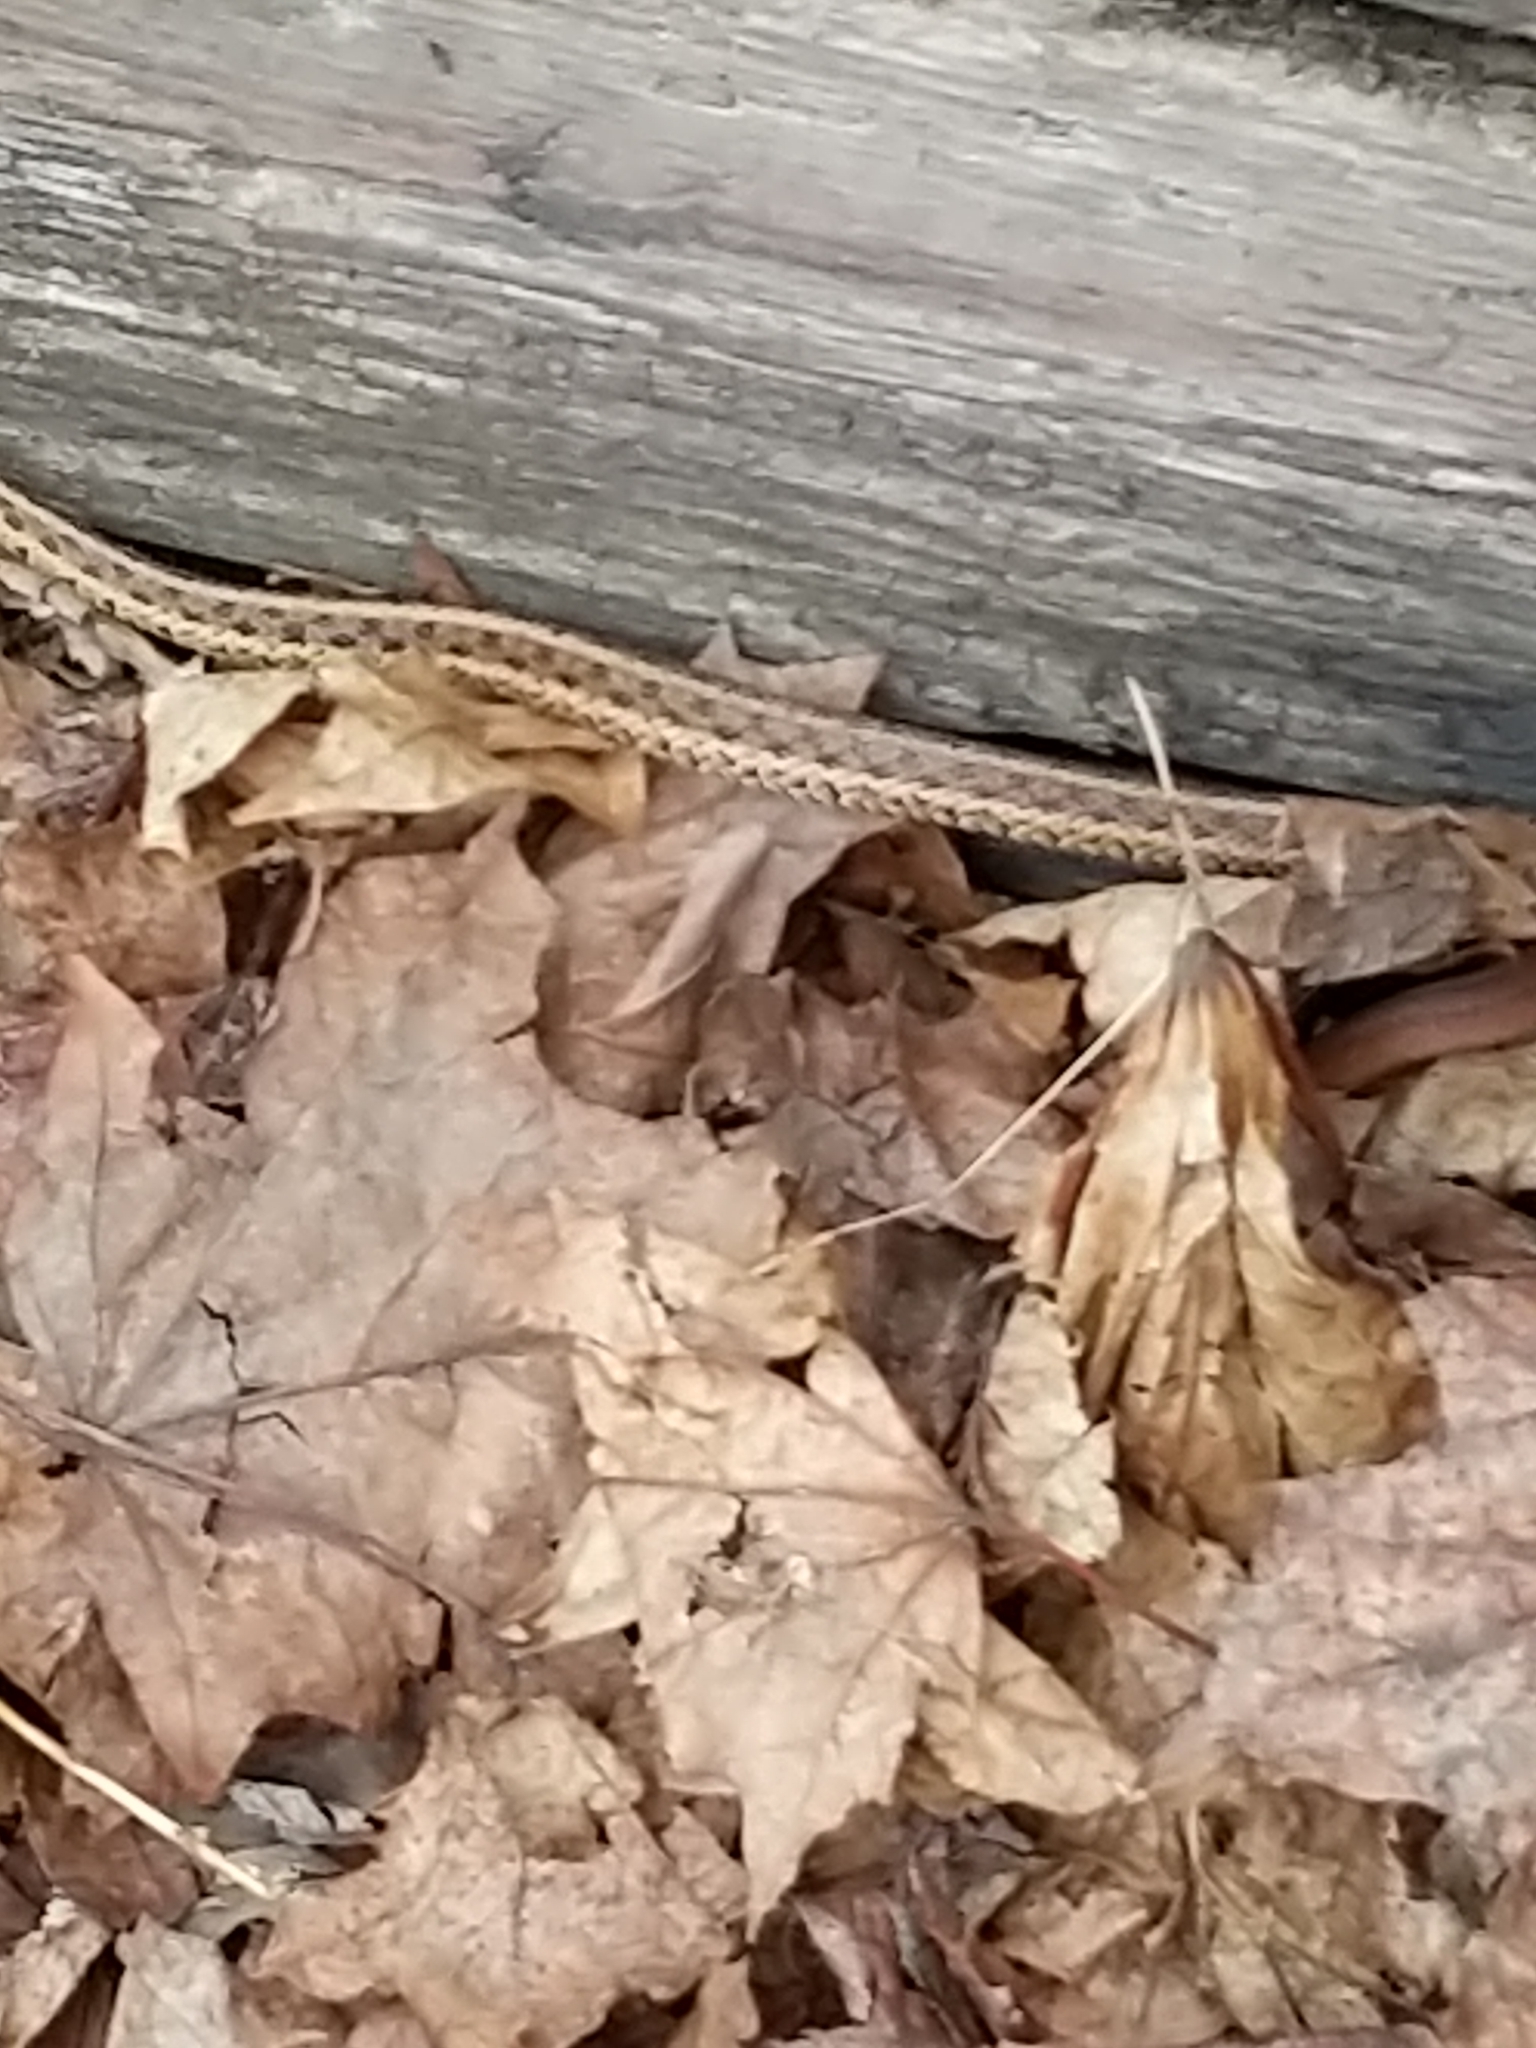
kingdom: Animalia
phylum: Chordata
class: Squamata
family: Colubridae
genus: Thamnophis
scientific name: Thamnophis sirtalis
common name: Common garter snake
